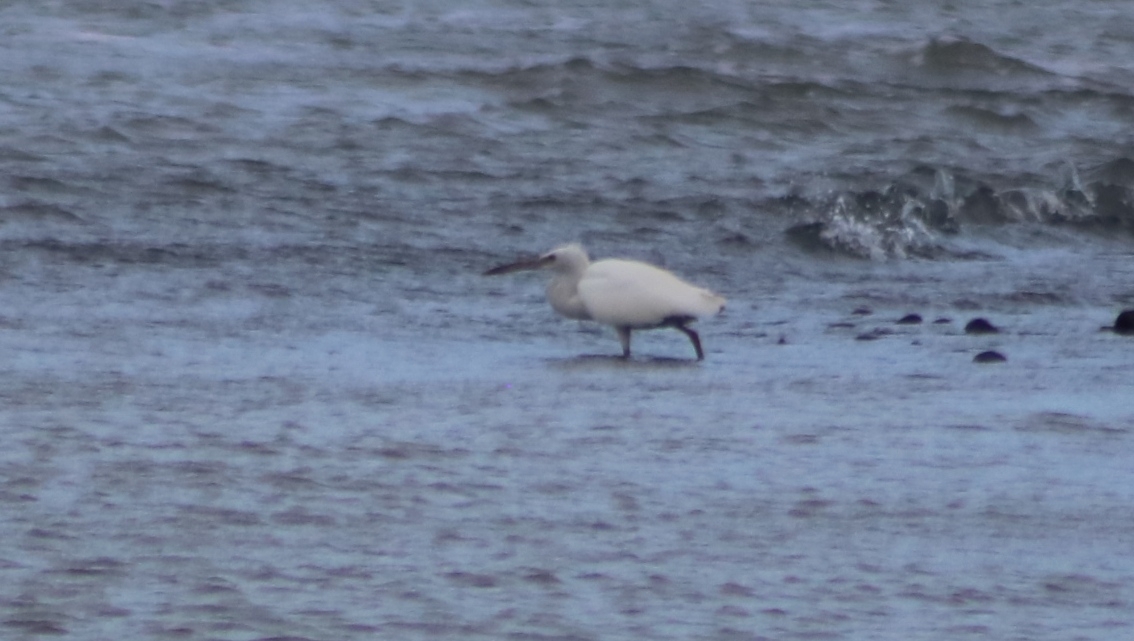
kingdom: Animalia
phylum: Chordata
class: Aves
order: Pelecaniformes
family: Ardeidae
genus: Egretta
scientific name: Egretta sacra
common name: Pacific reef heron
